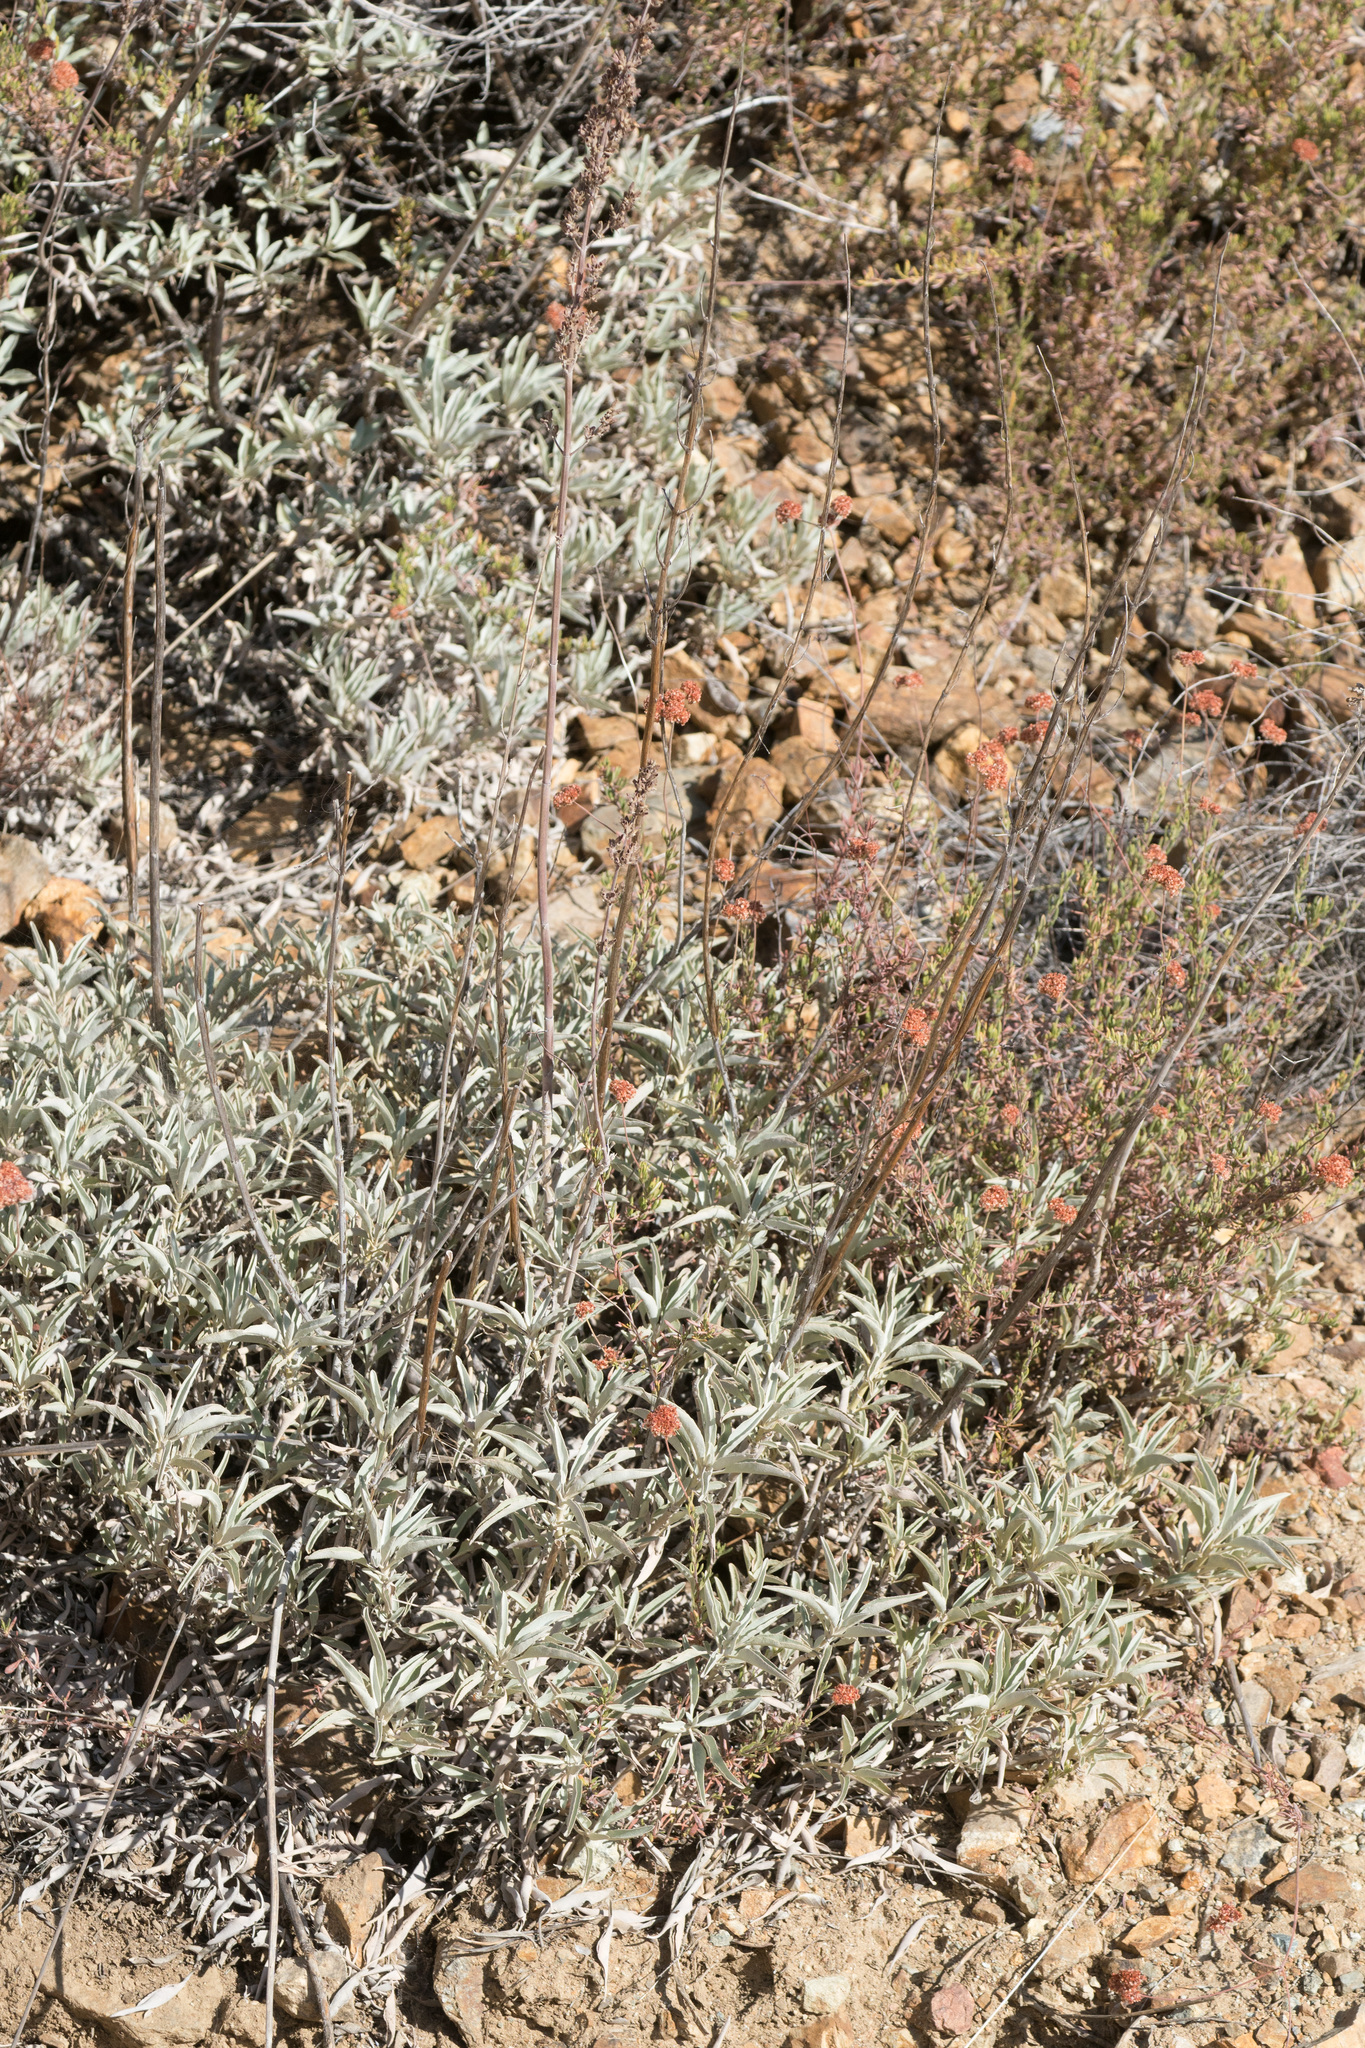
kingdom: Plantae
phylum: Tracheophyta
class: Magnoliopsida
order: Lamiales
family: Lamiaceae
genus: Salvia
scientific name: Salvia apiana
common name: White sage
